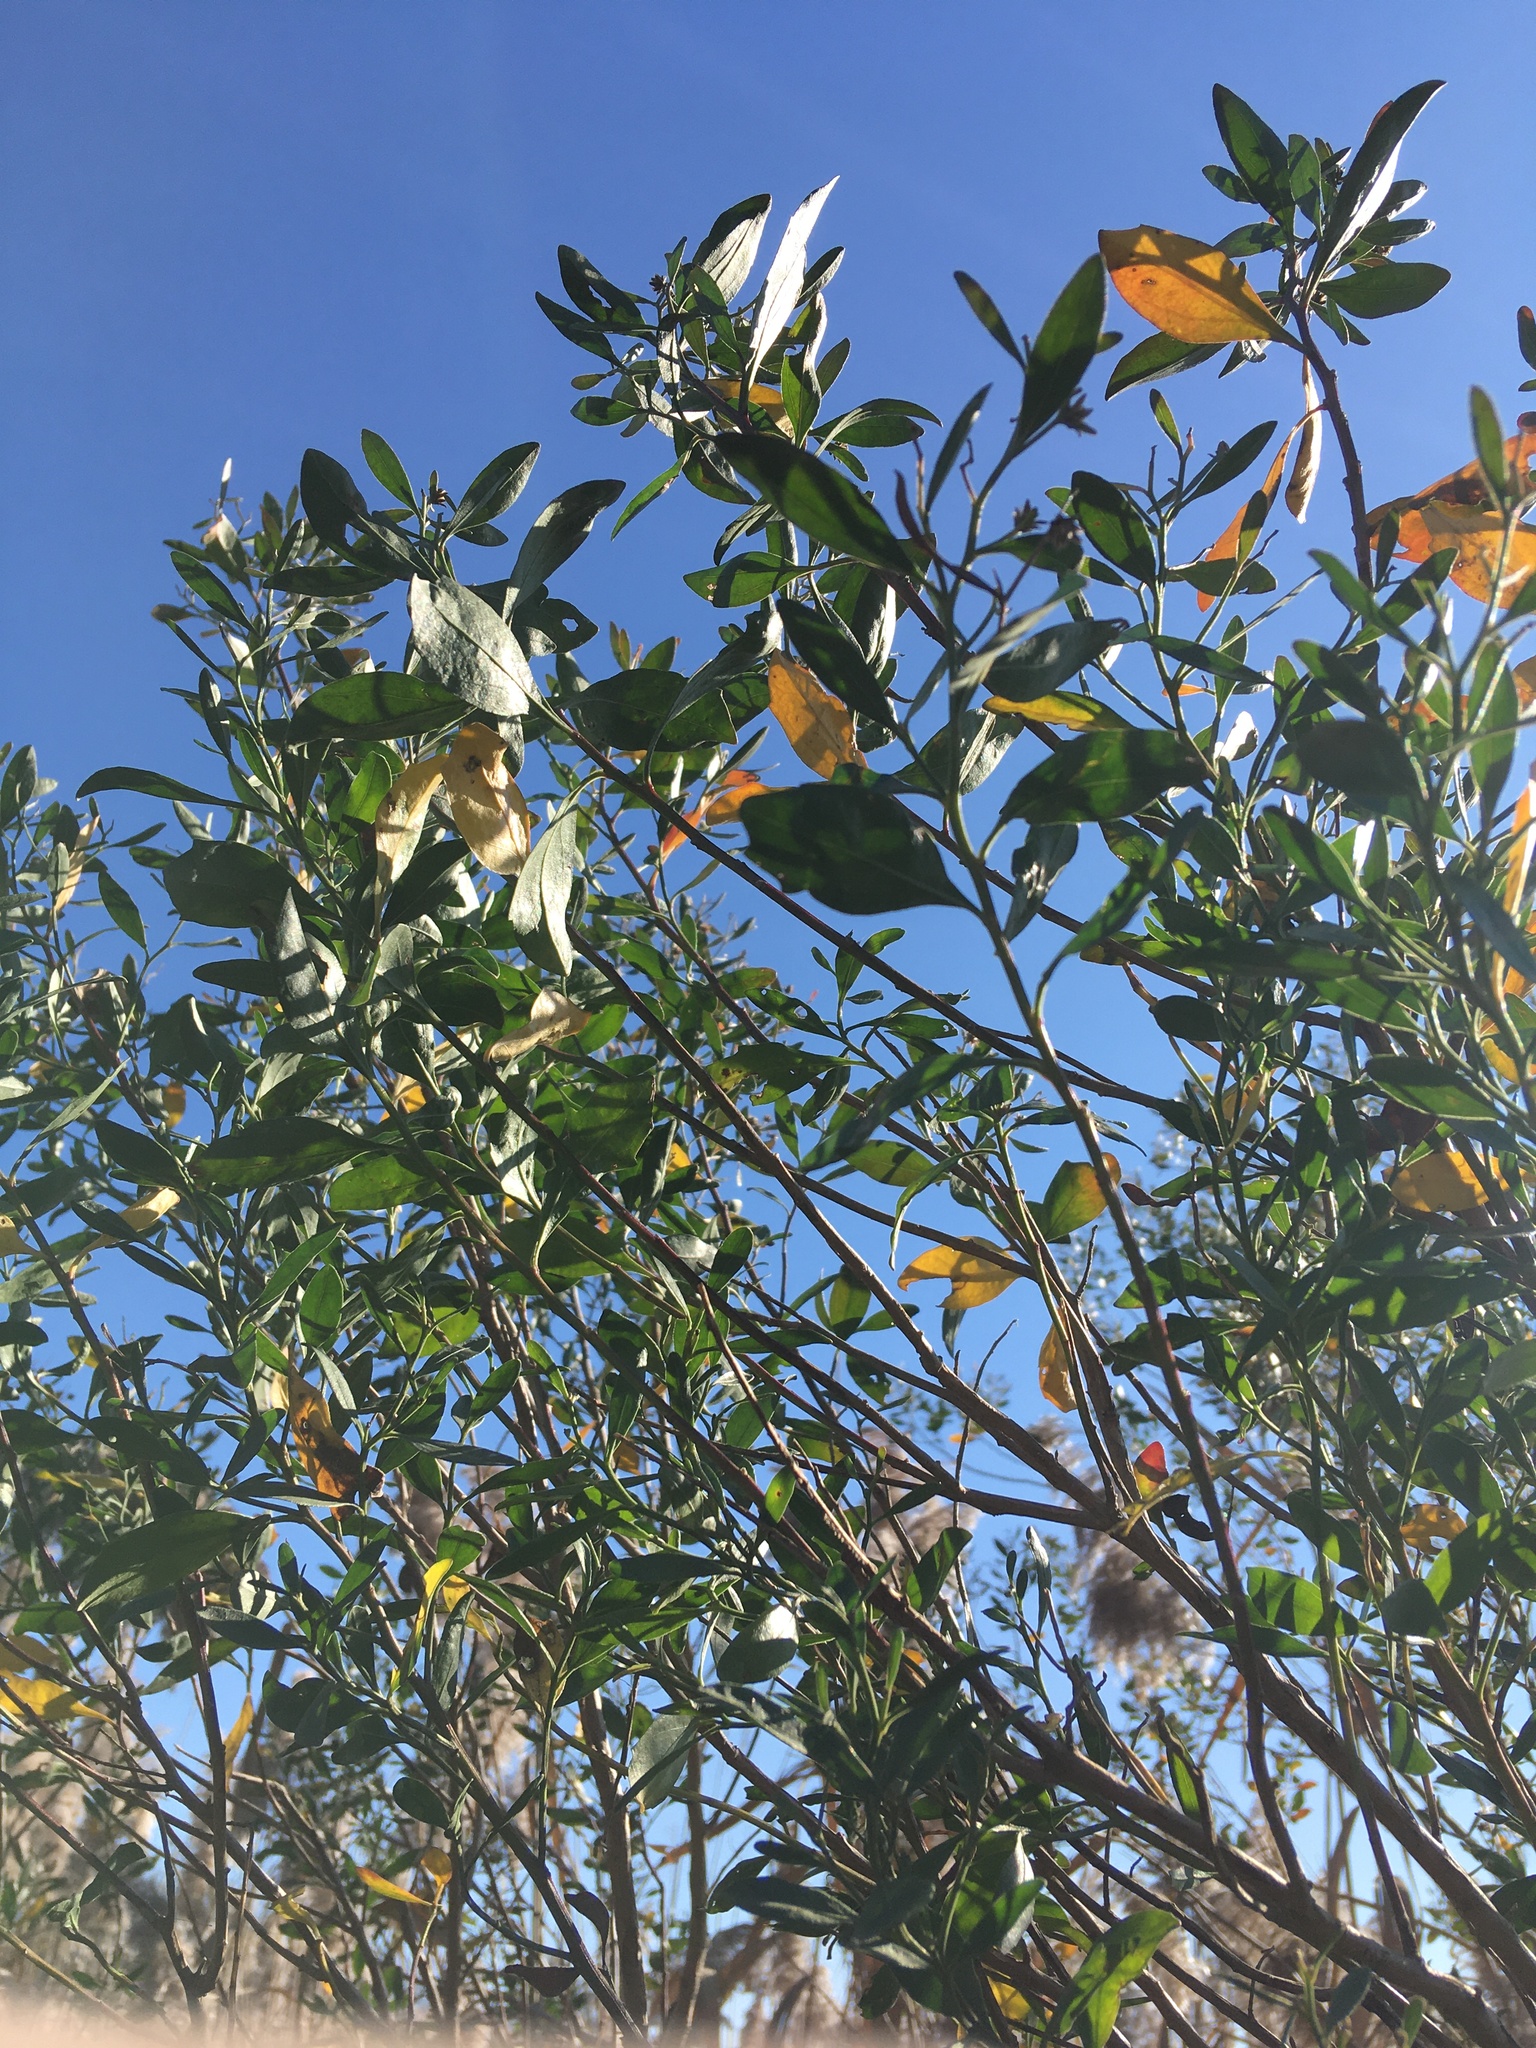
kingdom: Plantae
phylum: Tracheophyta
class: Magnoliopsida
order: Asterales
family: Asteraceae
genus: Baccharis
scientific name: Baccharis halimifolia
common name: Eastern baccharis
